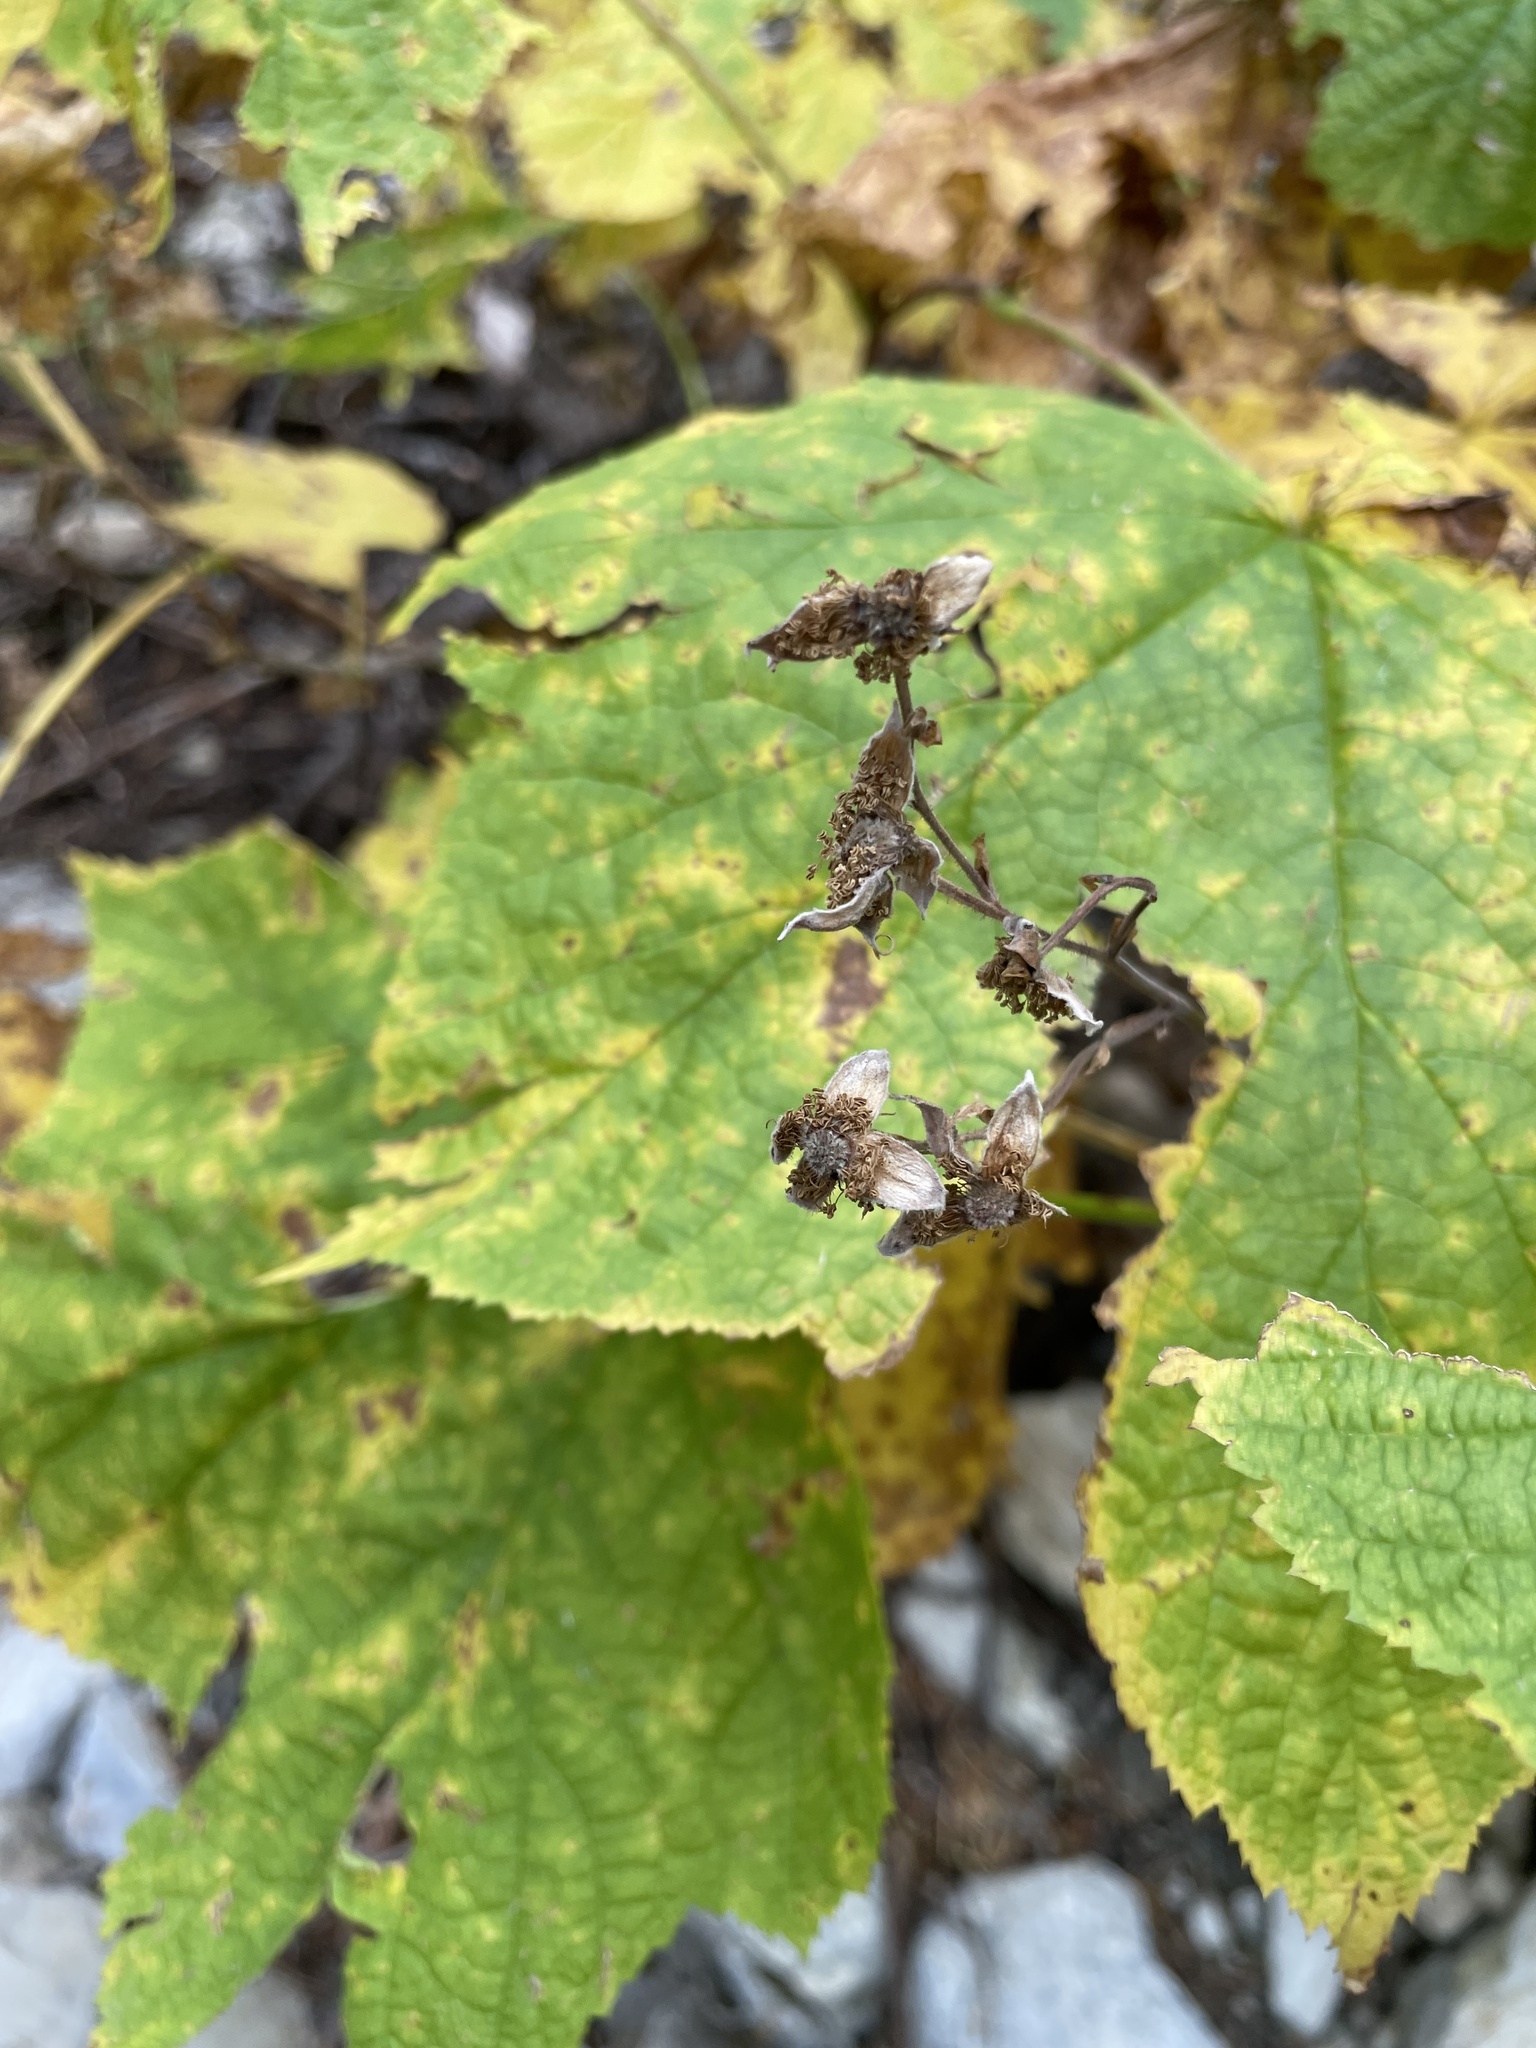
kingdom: Plantae
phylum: Tracheophyta
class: Magnoliopsida
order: Rosales
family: Rosaceae
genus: Rubus
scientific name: Rubus parviflorus
